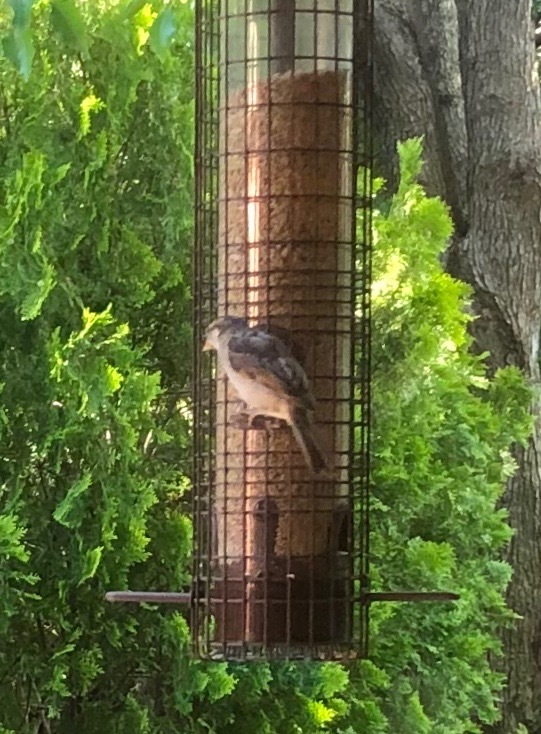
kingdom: Animalia
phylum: Chordata
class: Aves
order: Passeriformes
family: Passeridae
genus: Passer
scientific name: Passer domesticus
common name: House sparrow
